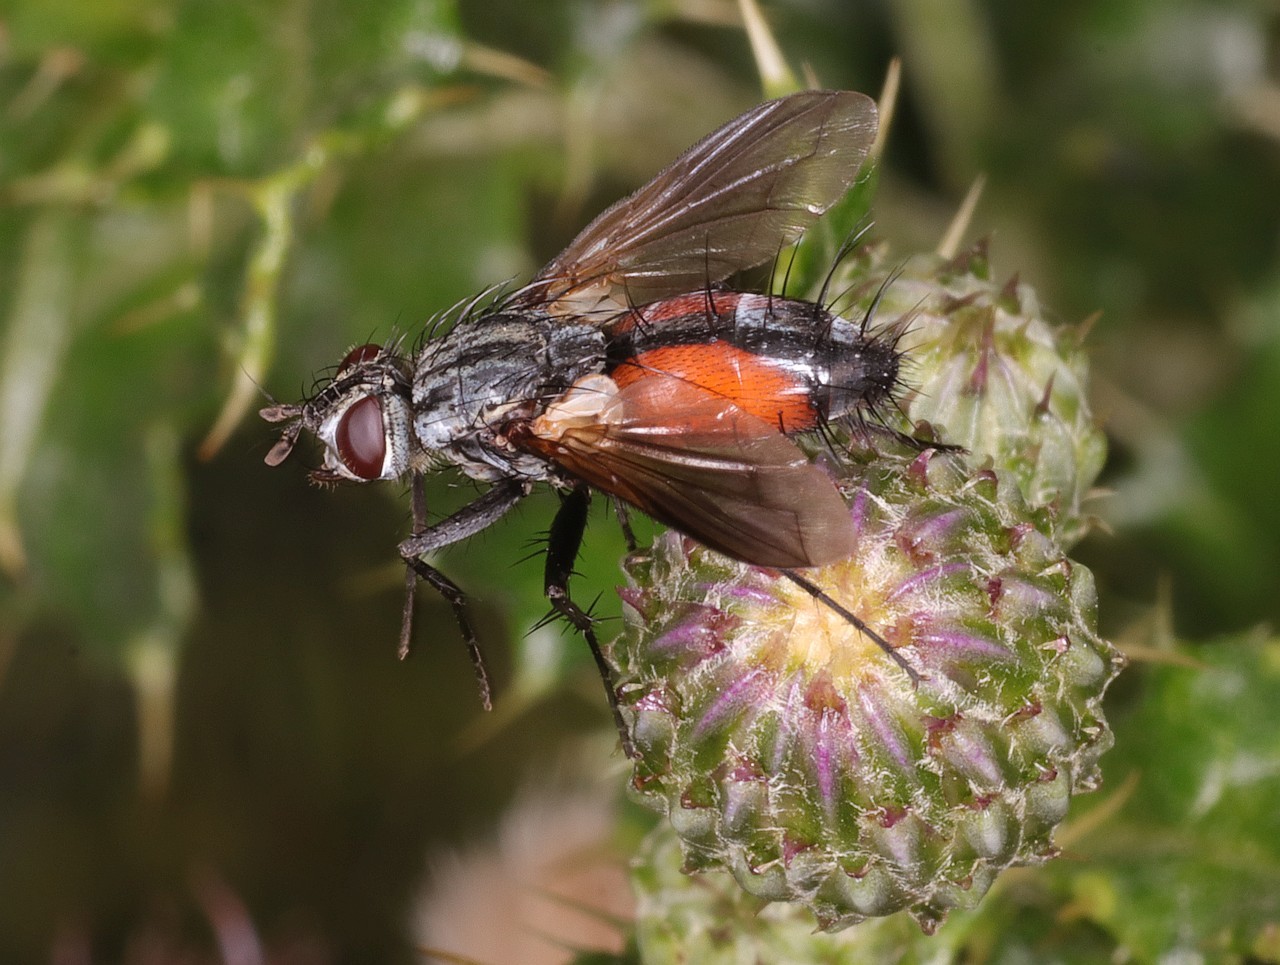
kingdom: Animalia
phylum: Arthropoda
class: Insecta
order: Diptera
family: Tachinidae
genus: Eriothrix
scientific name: Eriothrix rufomaculatus
